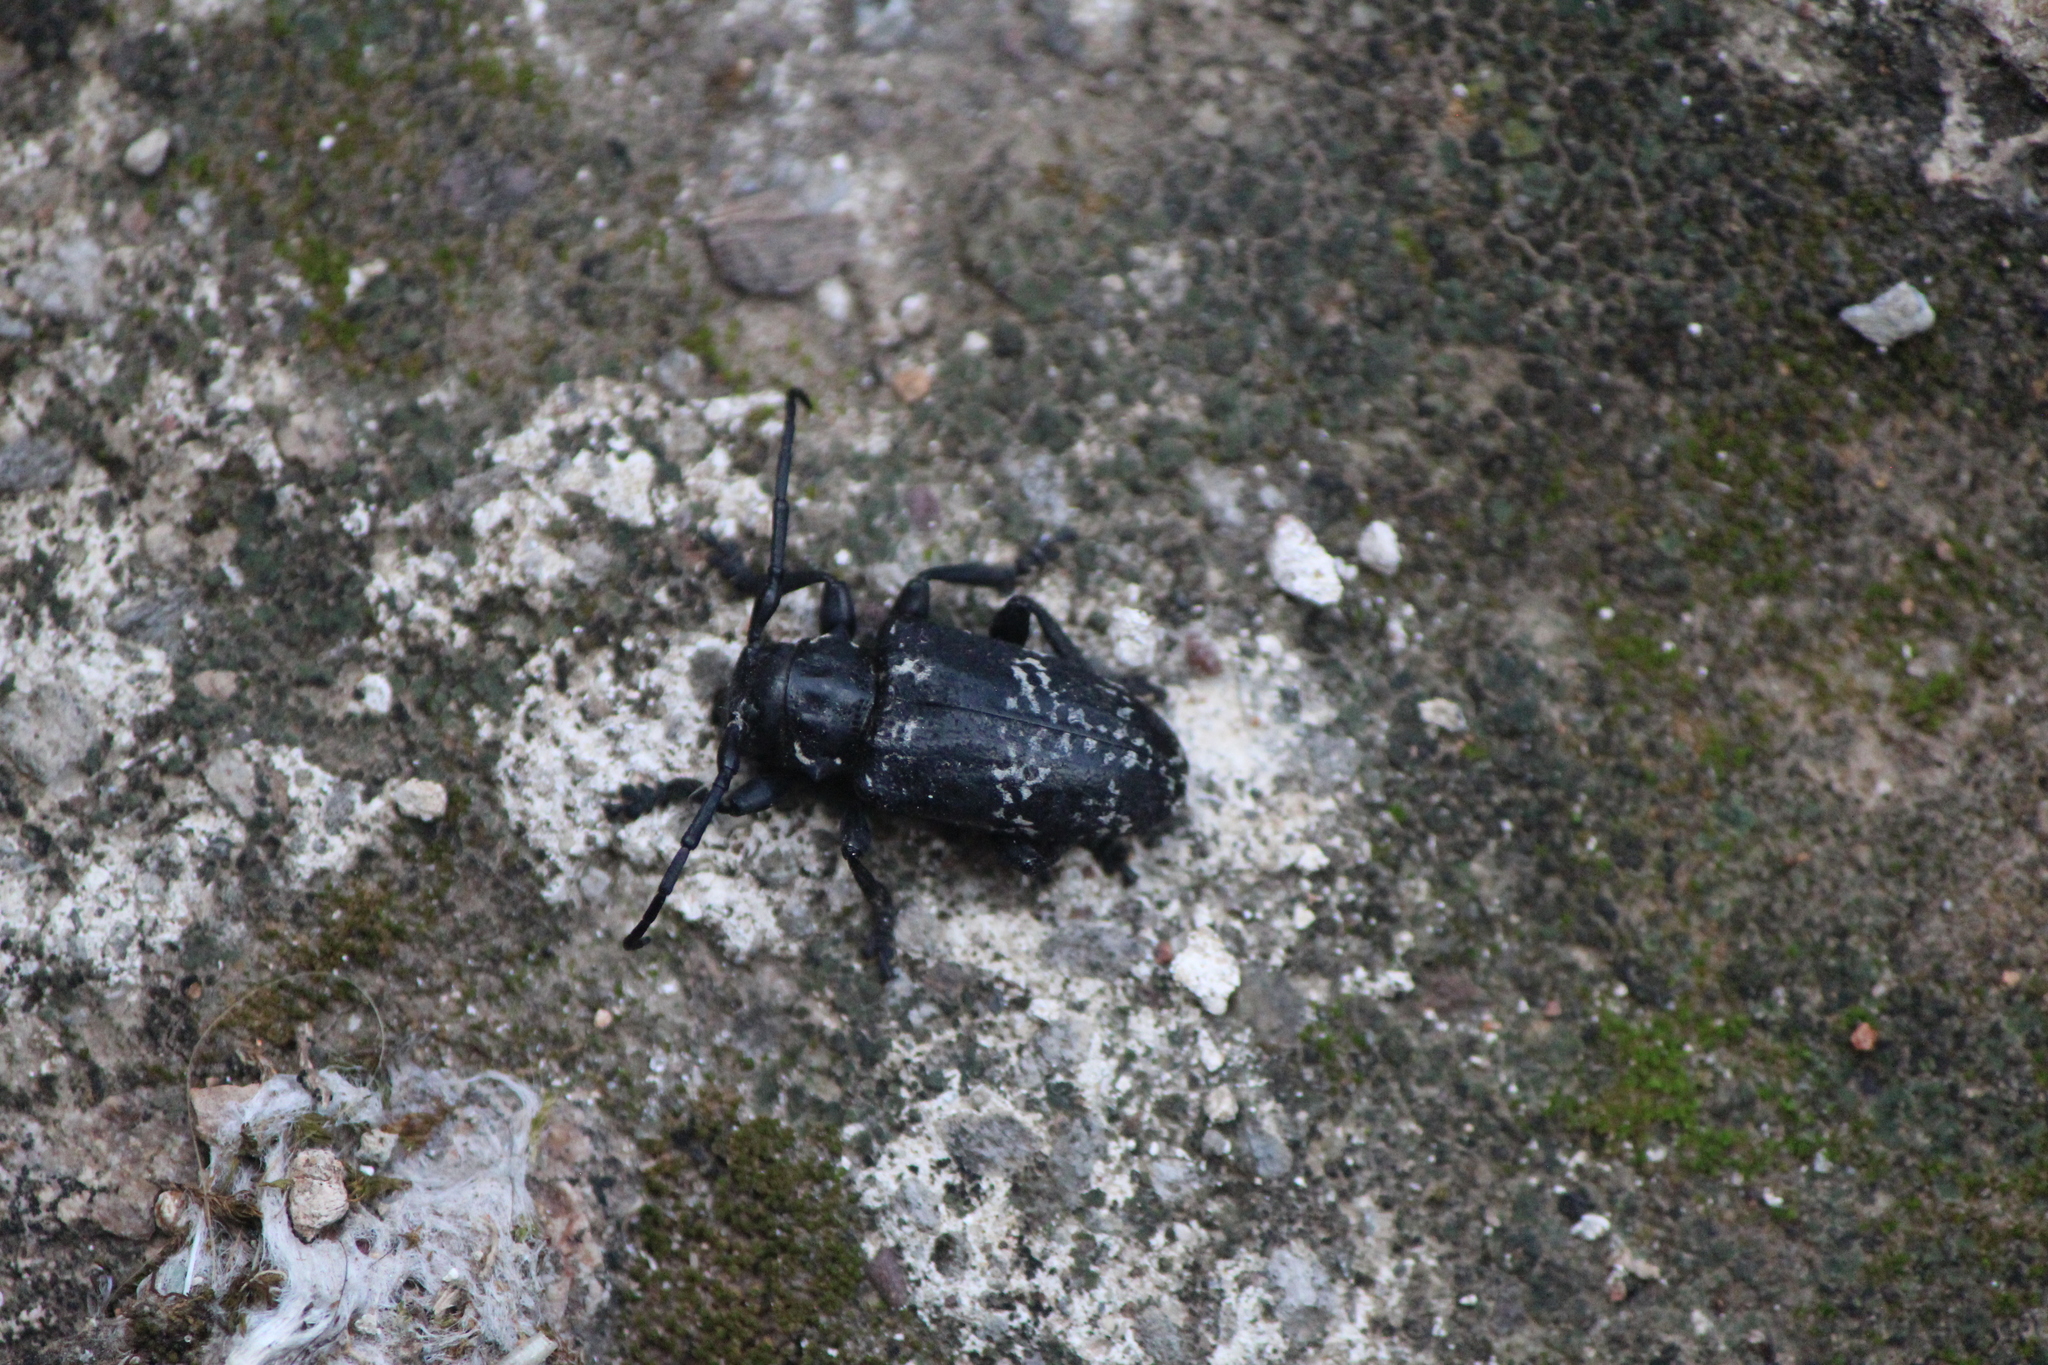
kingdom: Animalia
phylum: Arthropoda
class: Insecta
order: Coleoptera
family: Cerambycidae
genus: Acanthoderes
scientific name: Acanthoderes funeraria
